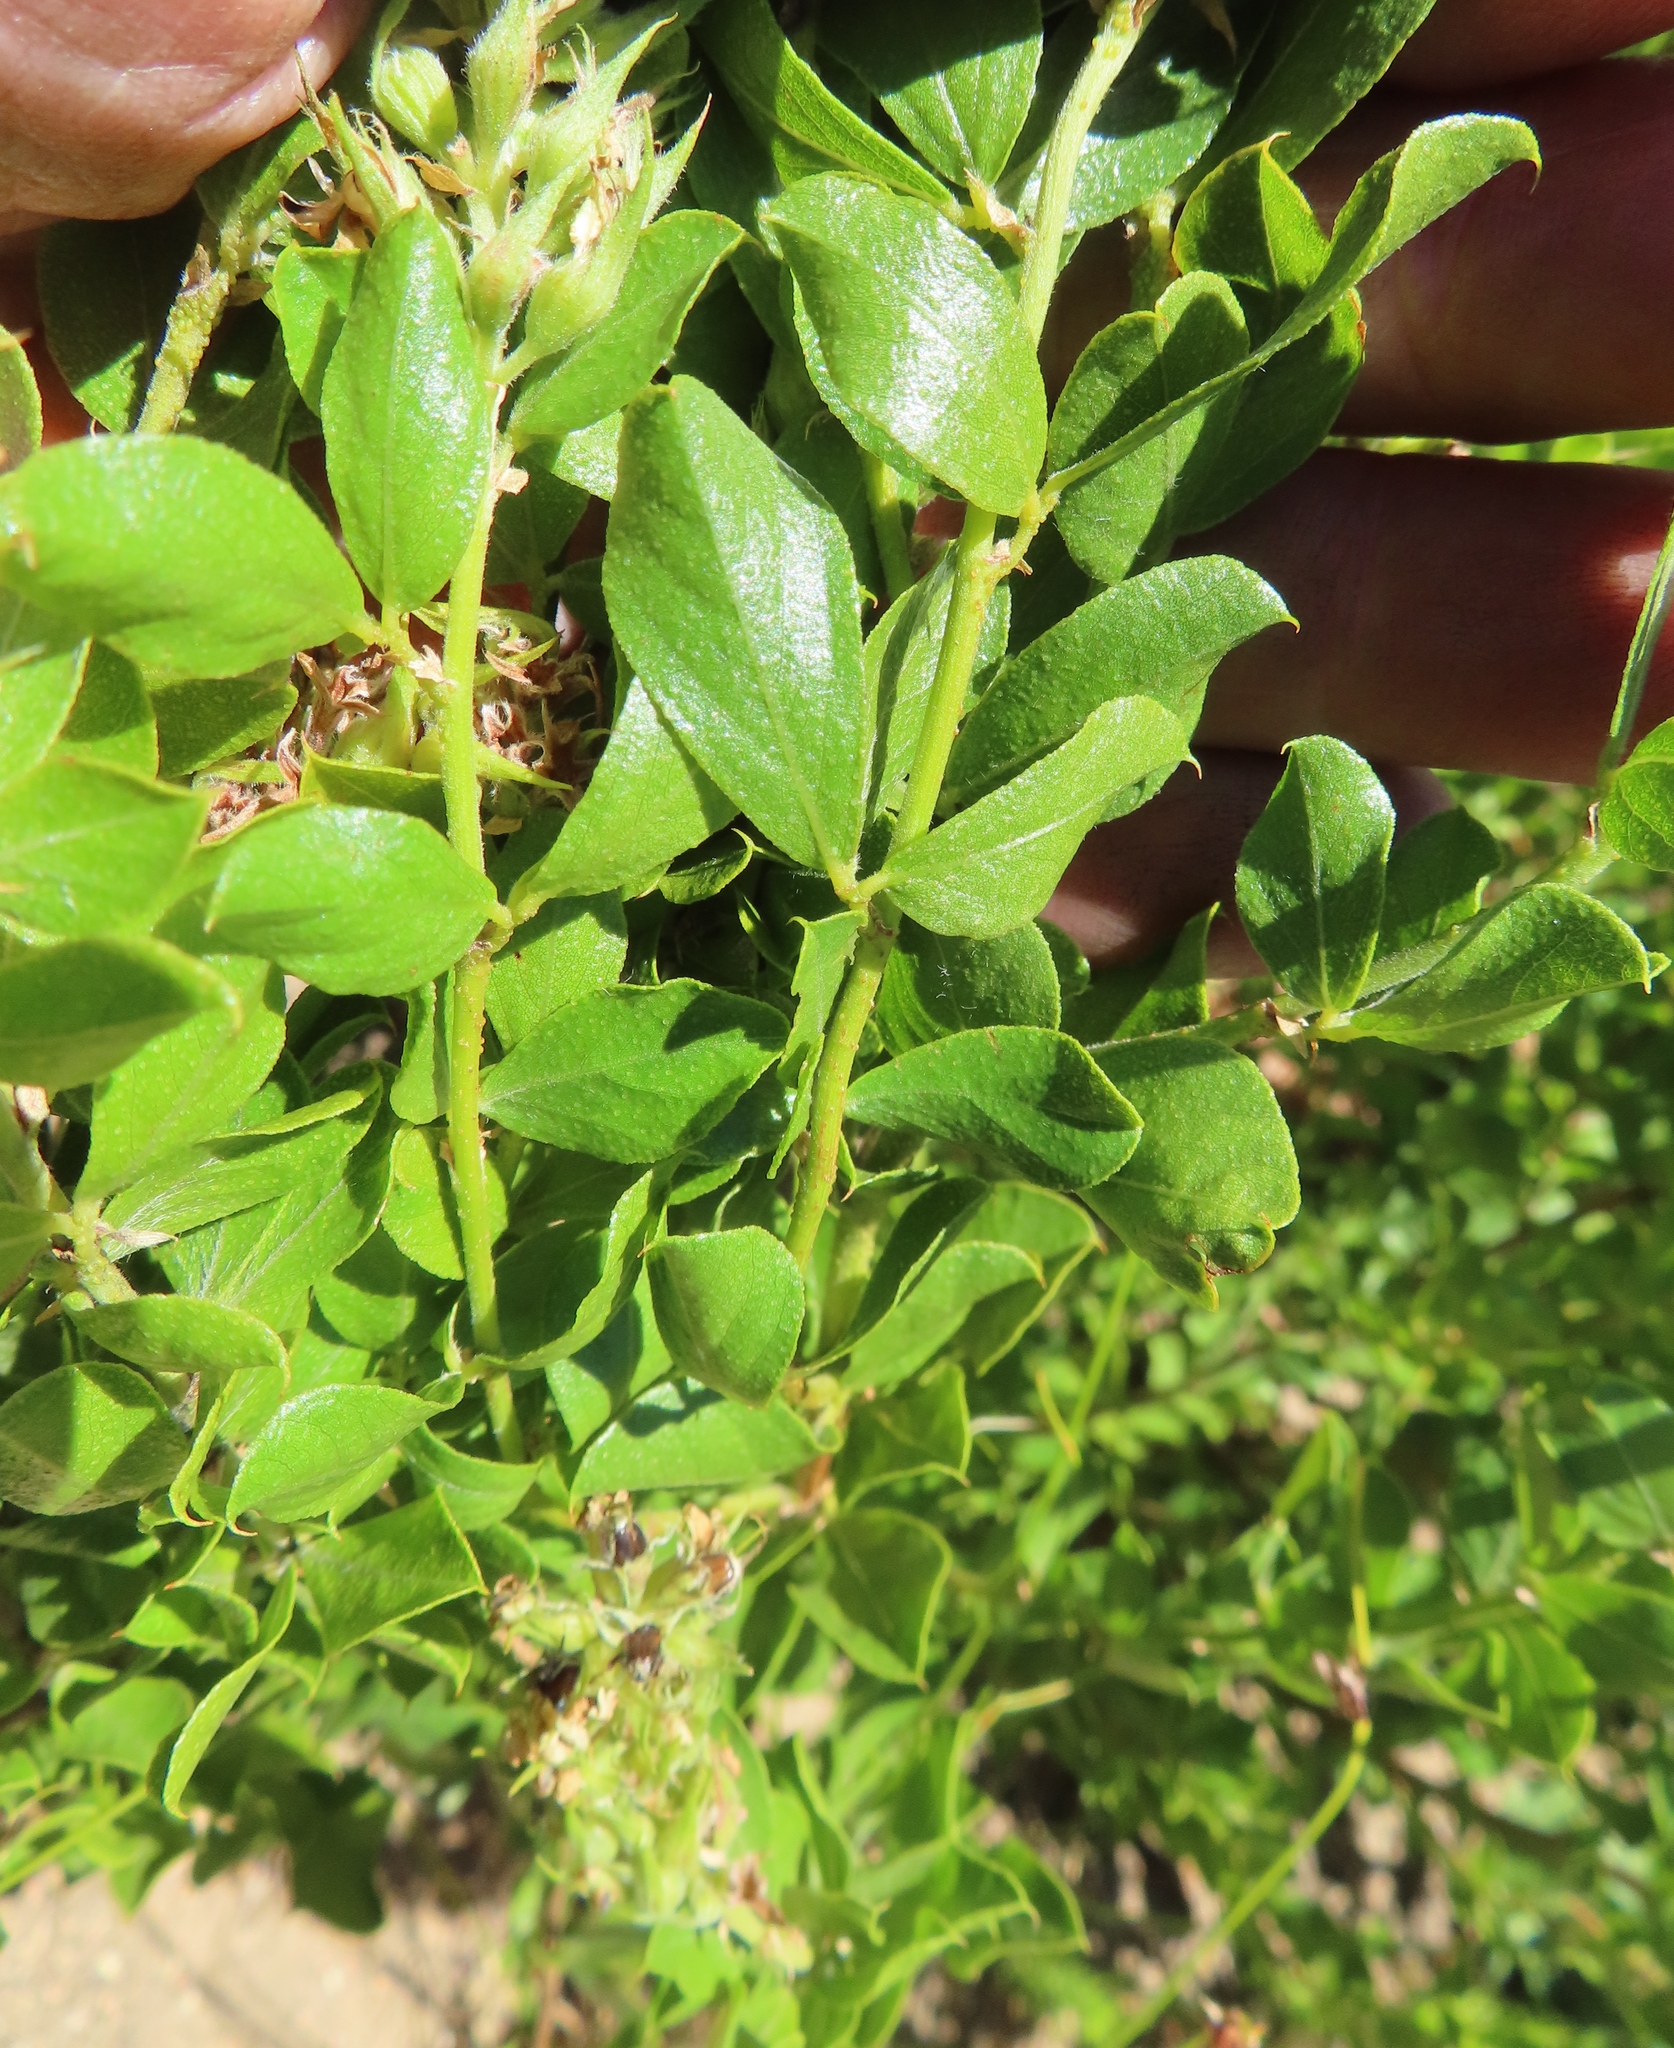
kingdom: Plantae
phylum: Tracheophyta
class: Magnoliopsida
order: Fabales
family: Fabaceae
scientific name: Fabaceae
